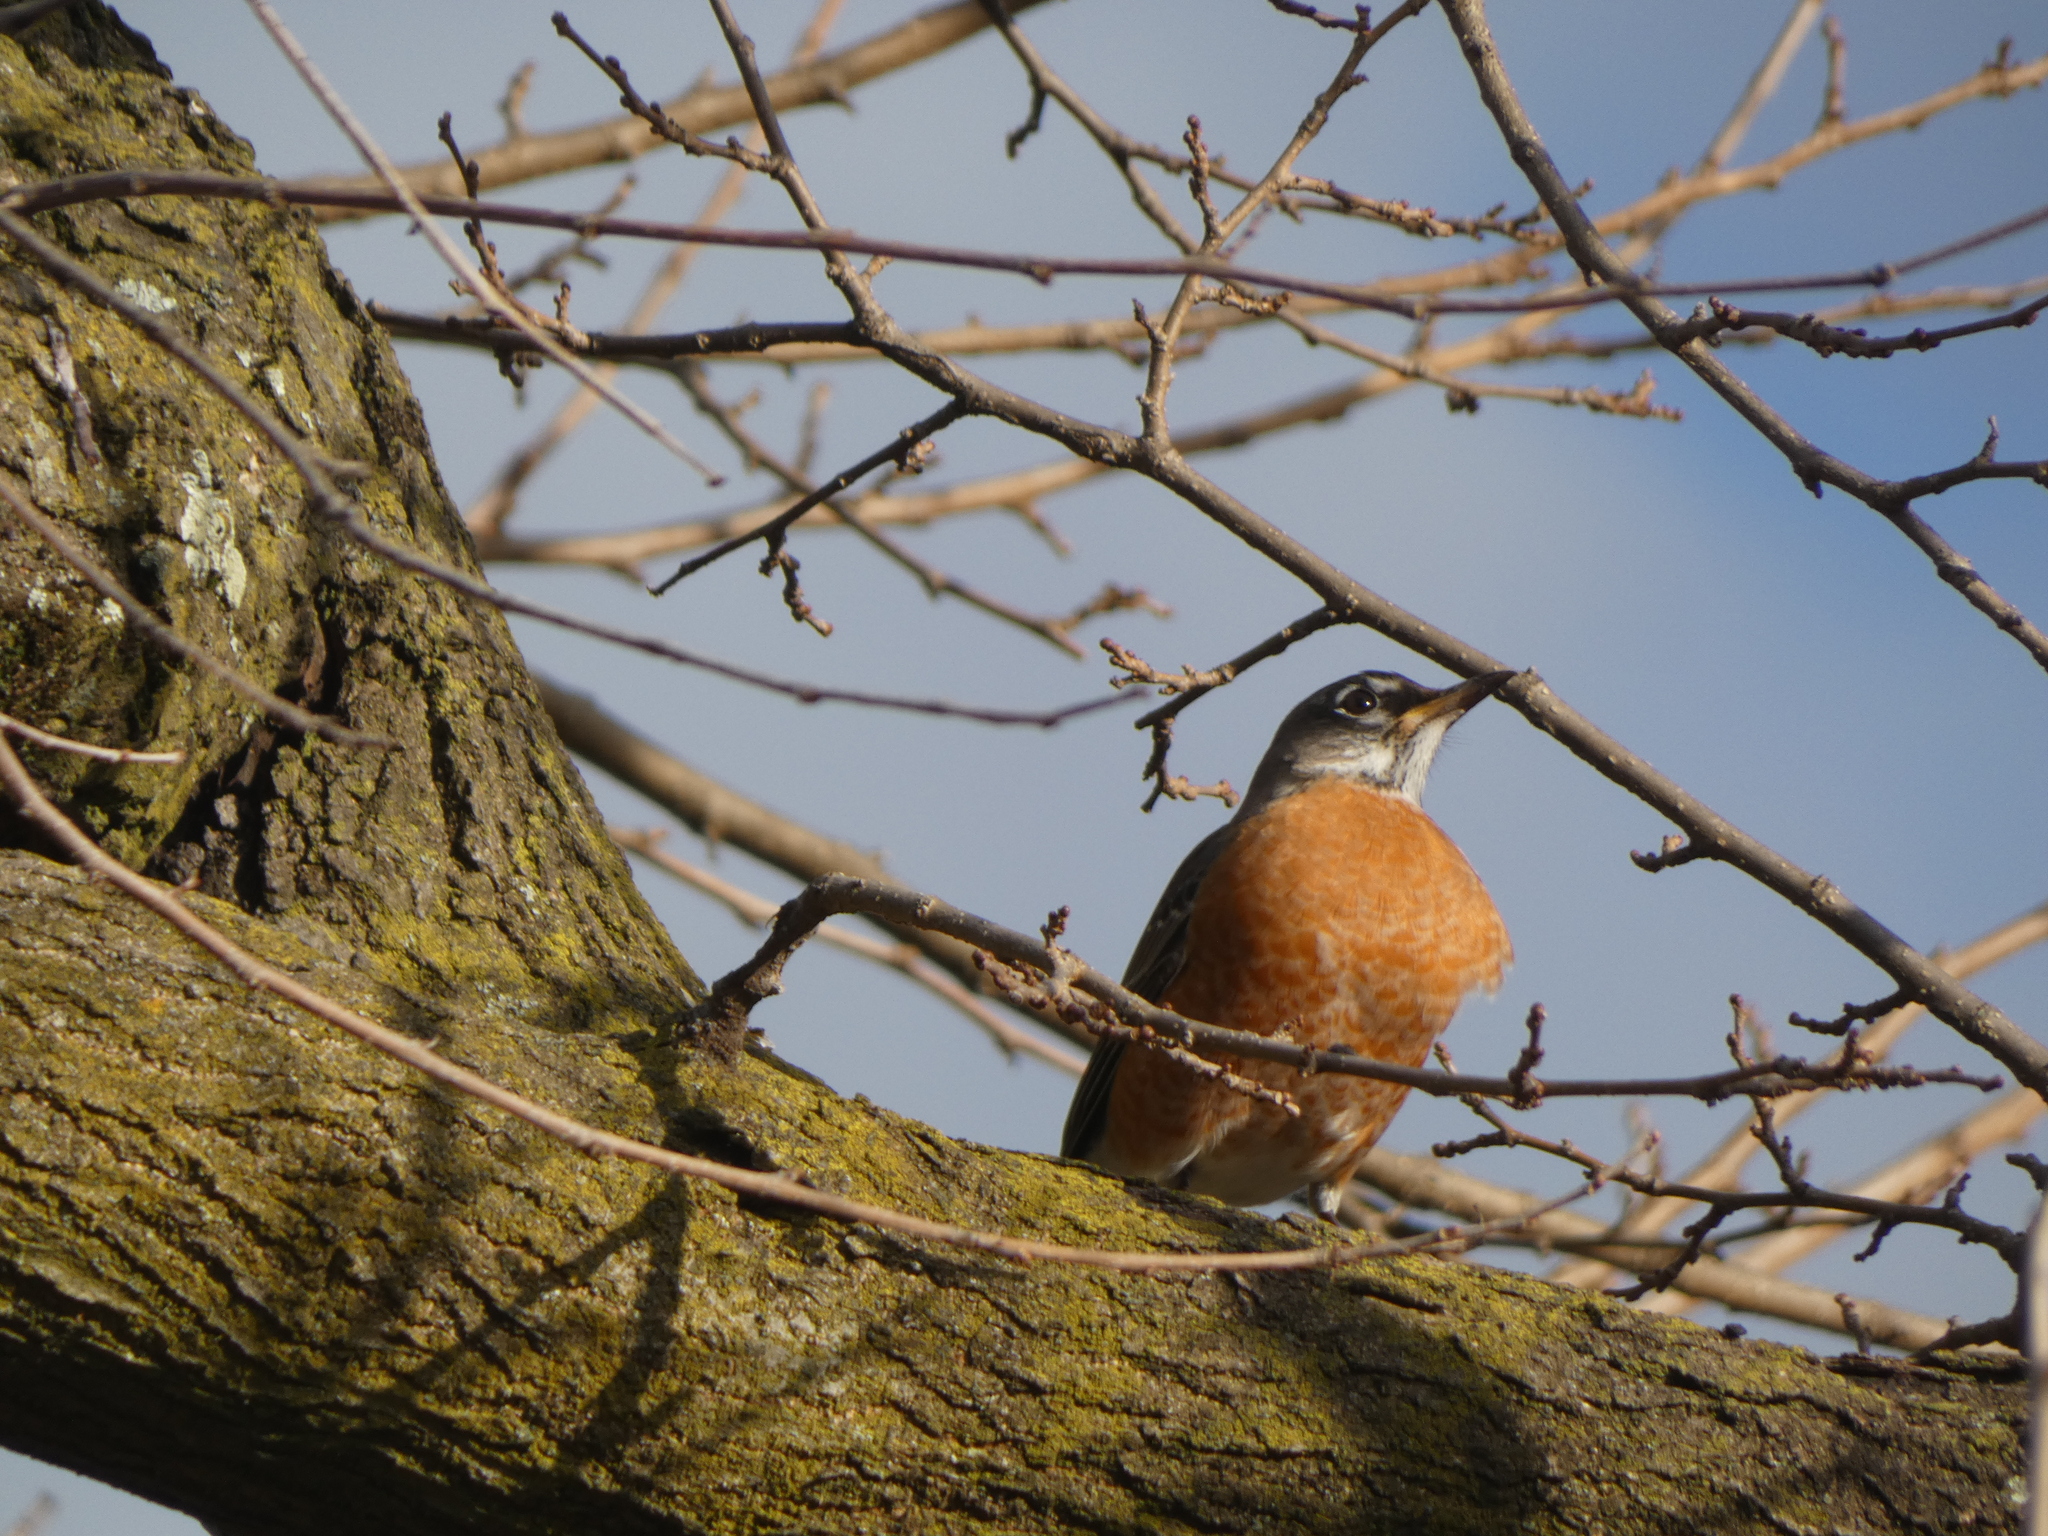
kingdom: Animalia
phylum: Chordata
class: Aves
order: Passeriformes
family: Turdidae
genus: Turdus
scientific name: Turdus migratorius
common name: American robin
